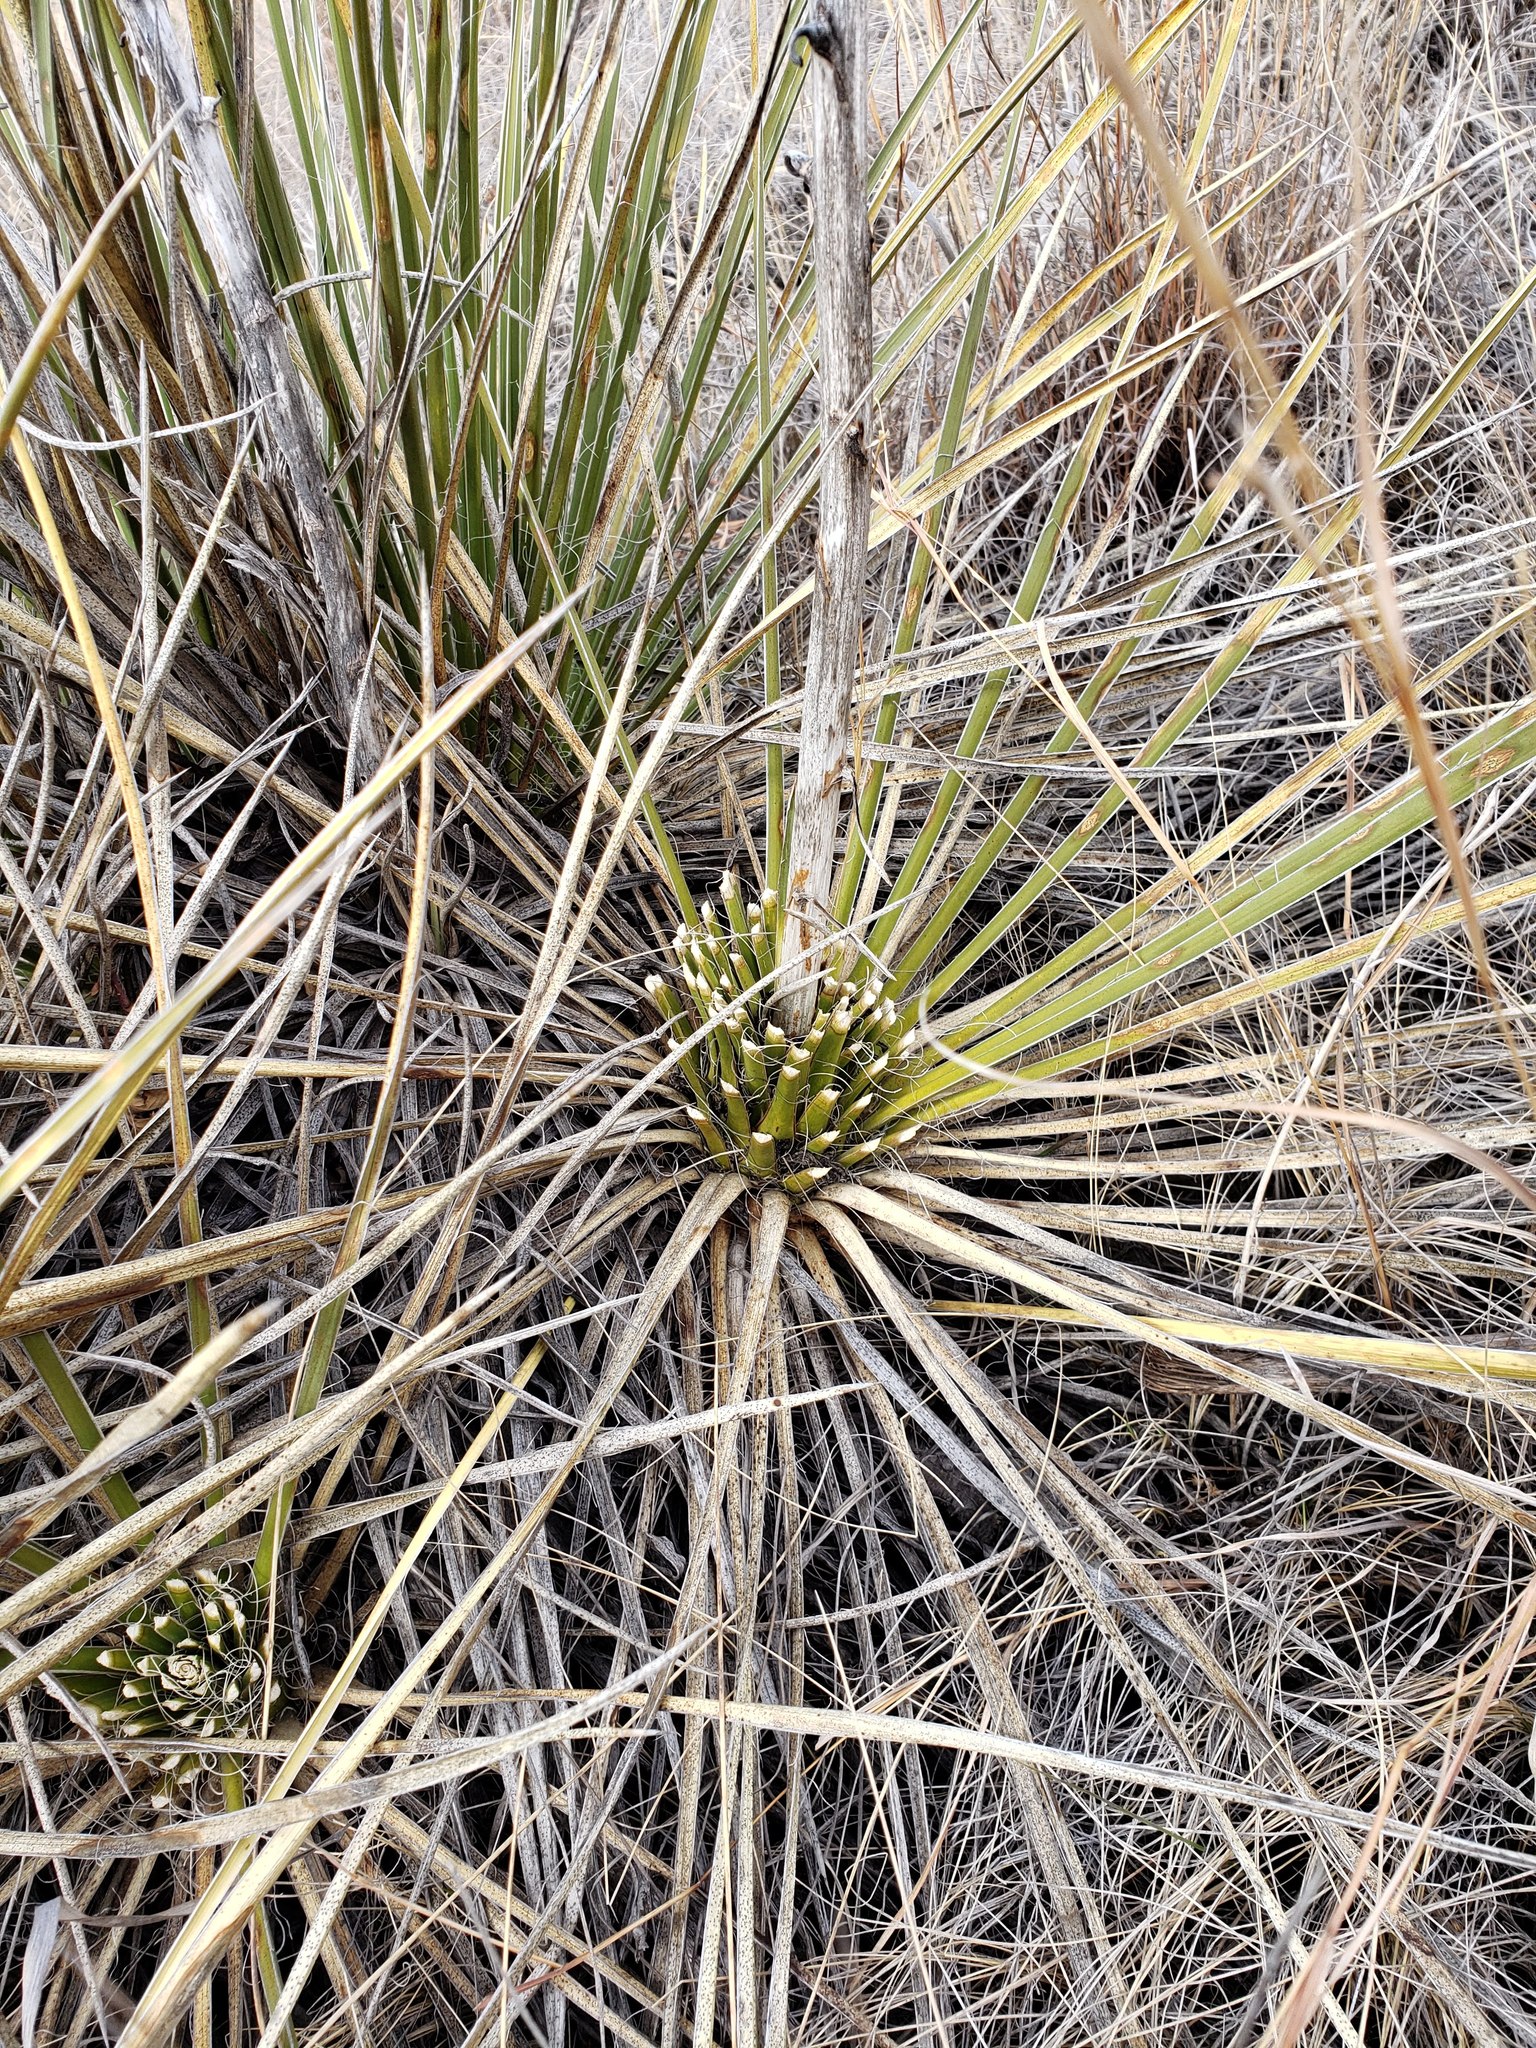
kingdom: Plantae
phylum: Tracheophyta
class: Liliopsida
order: Asparagales
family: Asparagaceae
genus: Yucca
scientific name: Yucca glauca
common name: Great plains yucca
